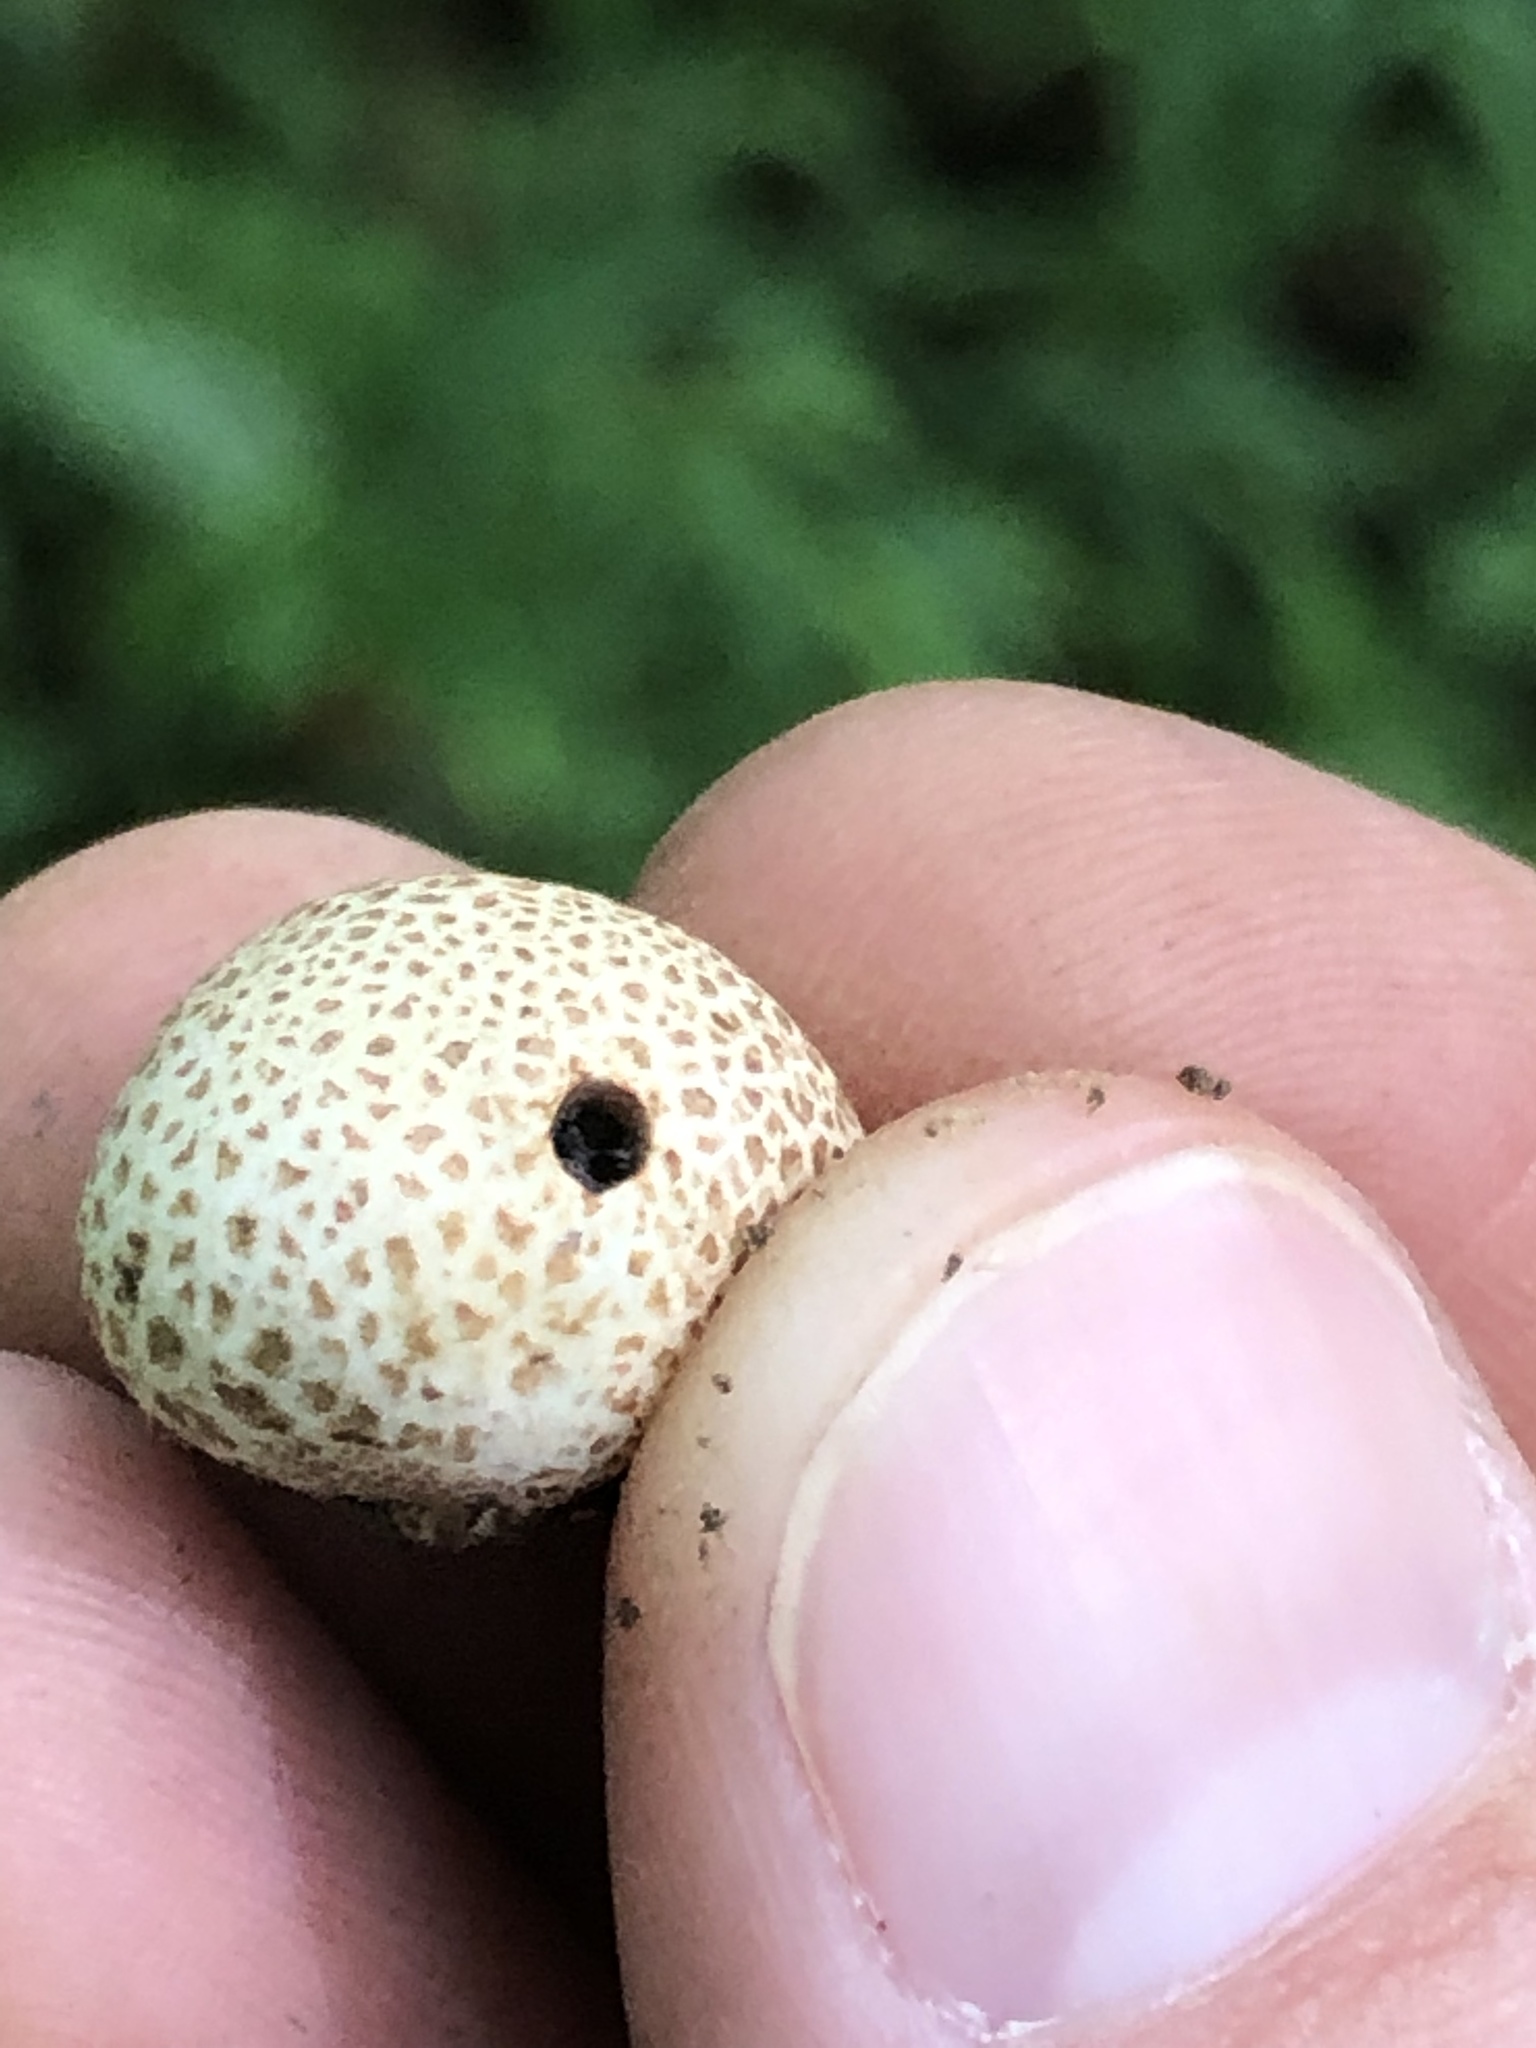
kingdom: Fungi
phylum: Basidiomycota
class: Agaricomycetes
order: Boletales
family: Sclerodermataceae
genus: Scleroderma
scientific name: Scleroderma citrinum
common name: Common earthball
